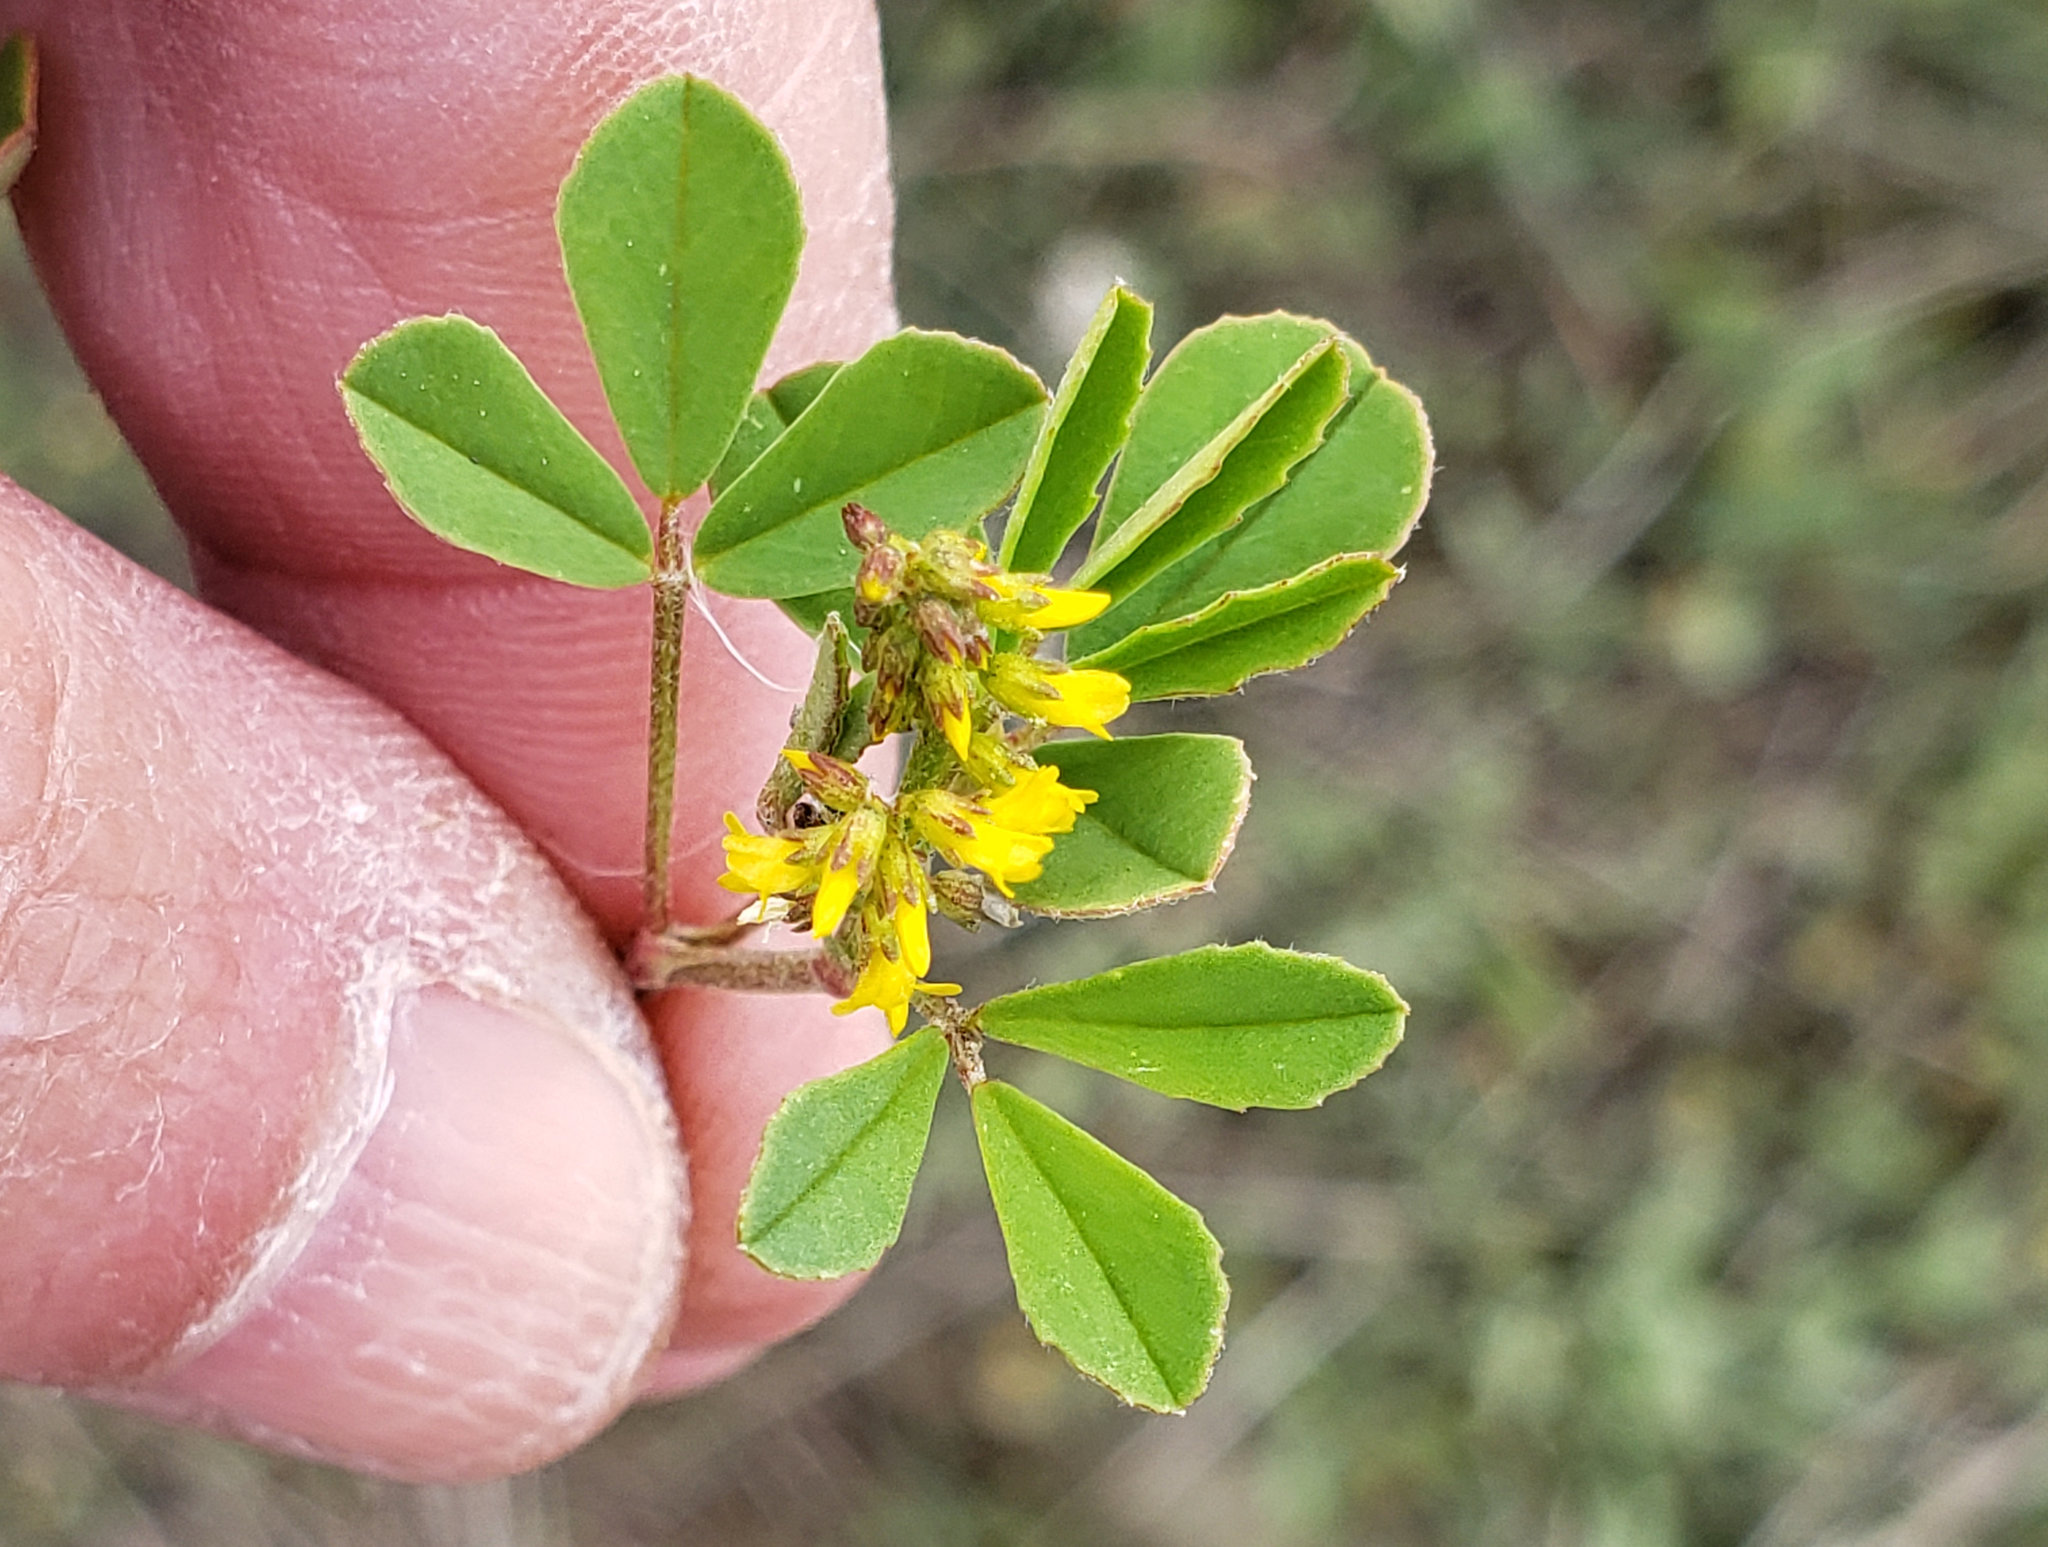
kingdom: Plantae
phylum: Tracheophyta
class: Magnoliopsida
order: Fabales
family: Fabaceae
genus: Melilotus
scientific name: Melilotus indicus
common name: Small melilot
